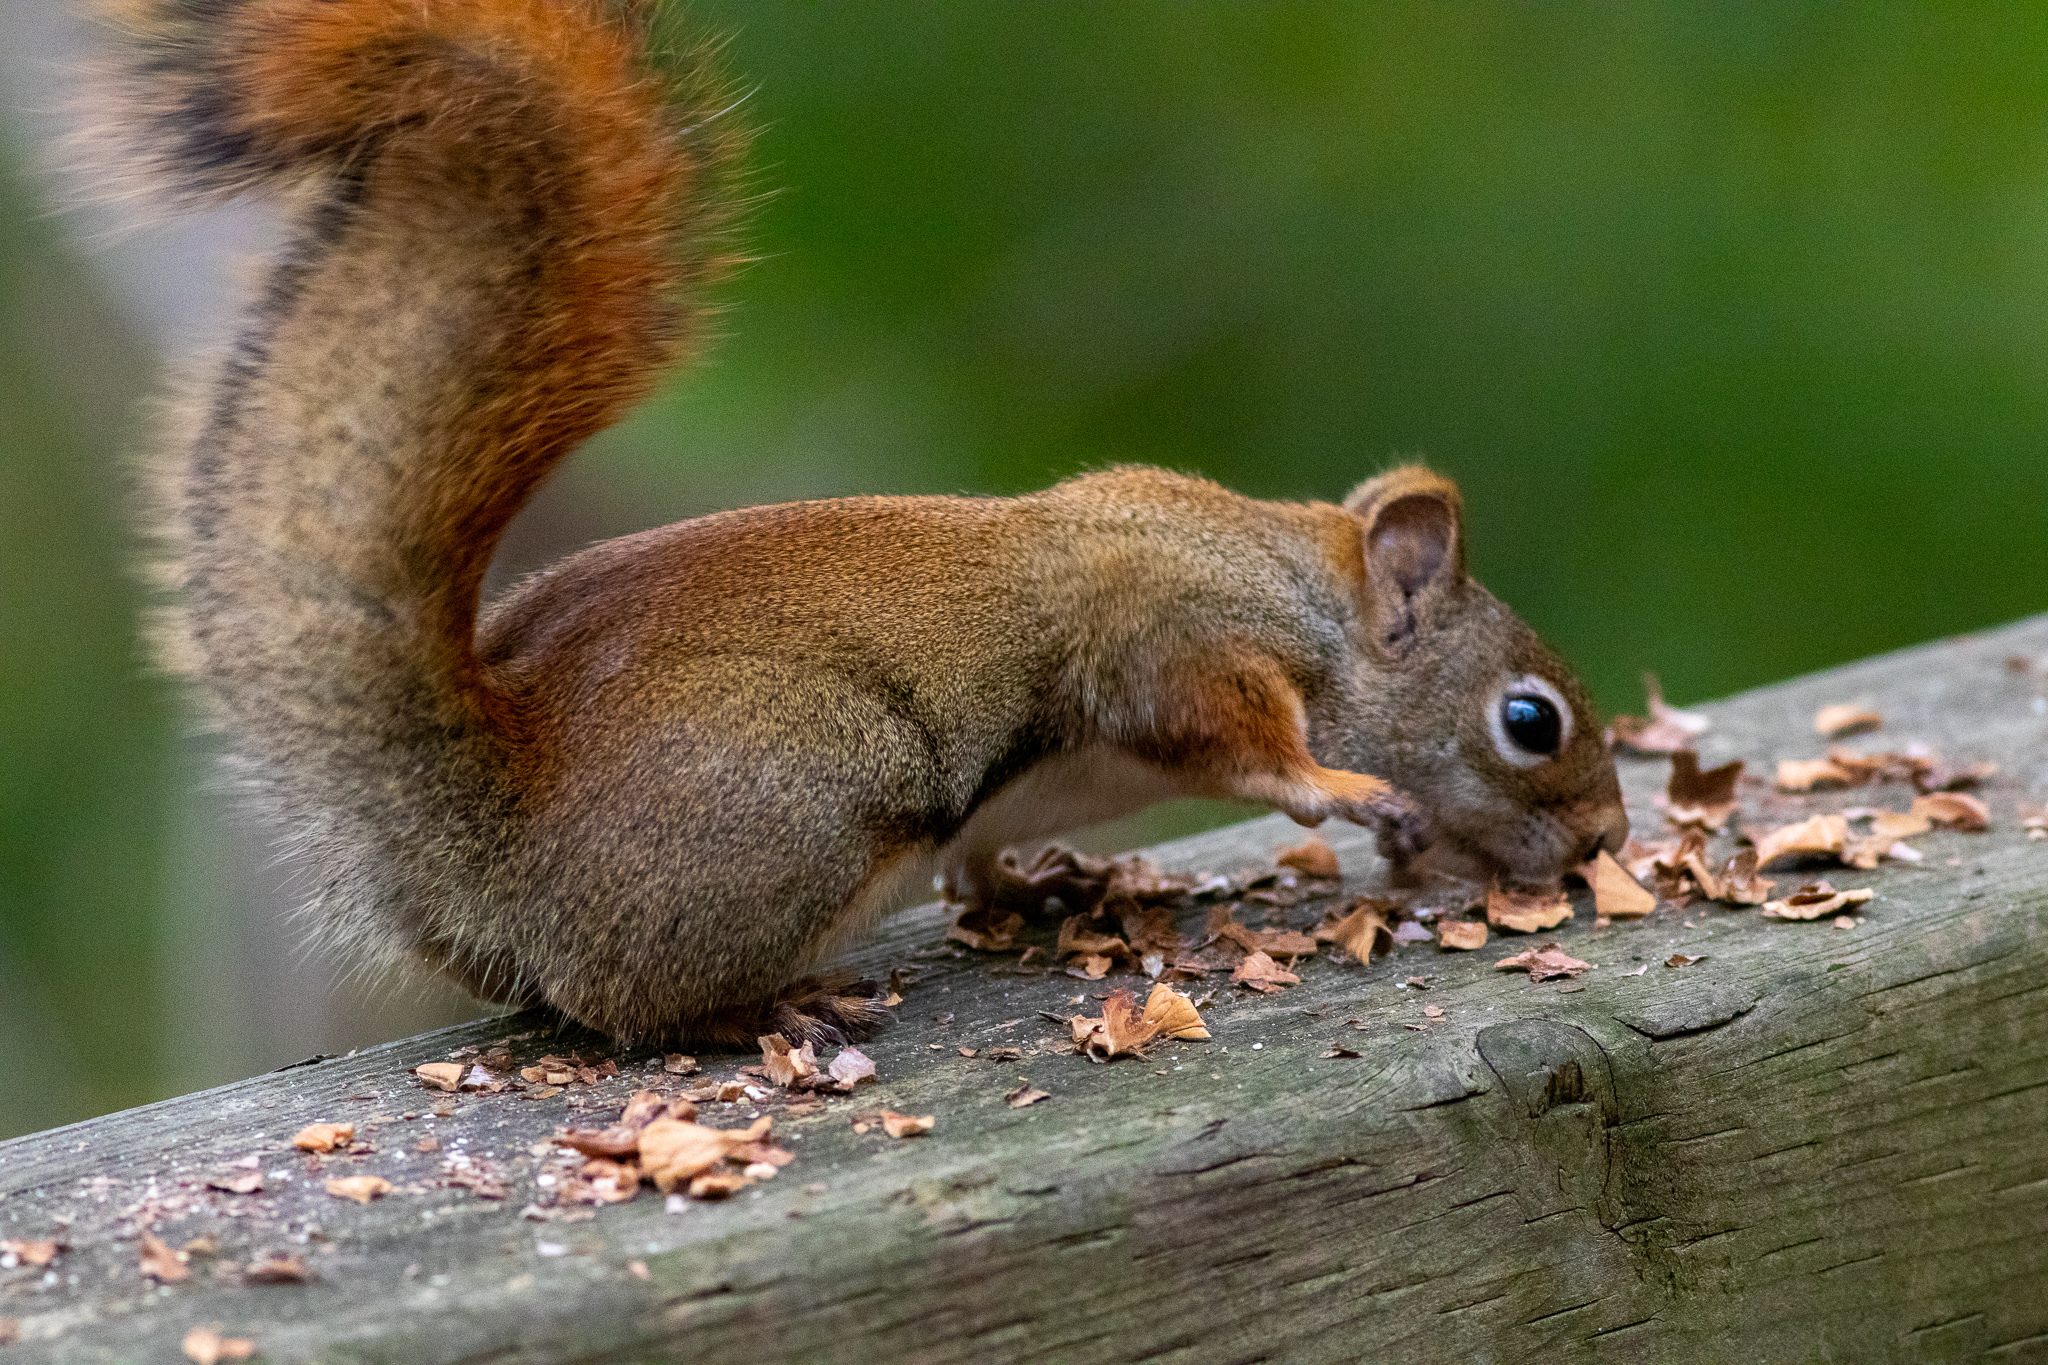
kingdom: Animalia
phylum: Chordata
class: Mammalia
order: Rodentia
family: Sciuridae
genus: Tamiasciurus
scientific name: Tamiasciurus hudsonicus
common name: Red squirrel
